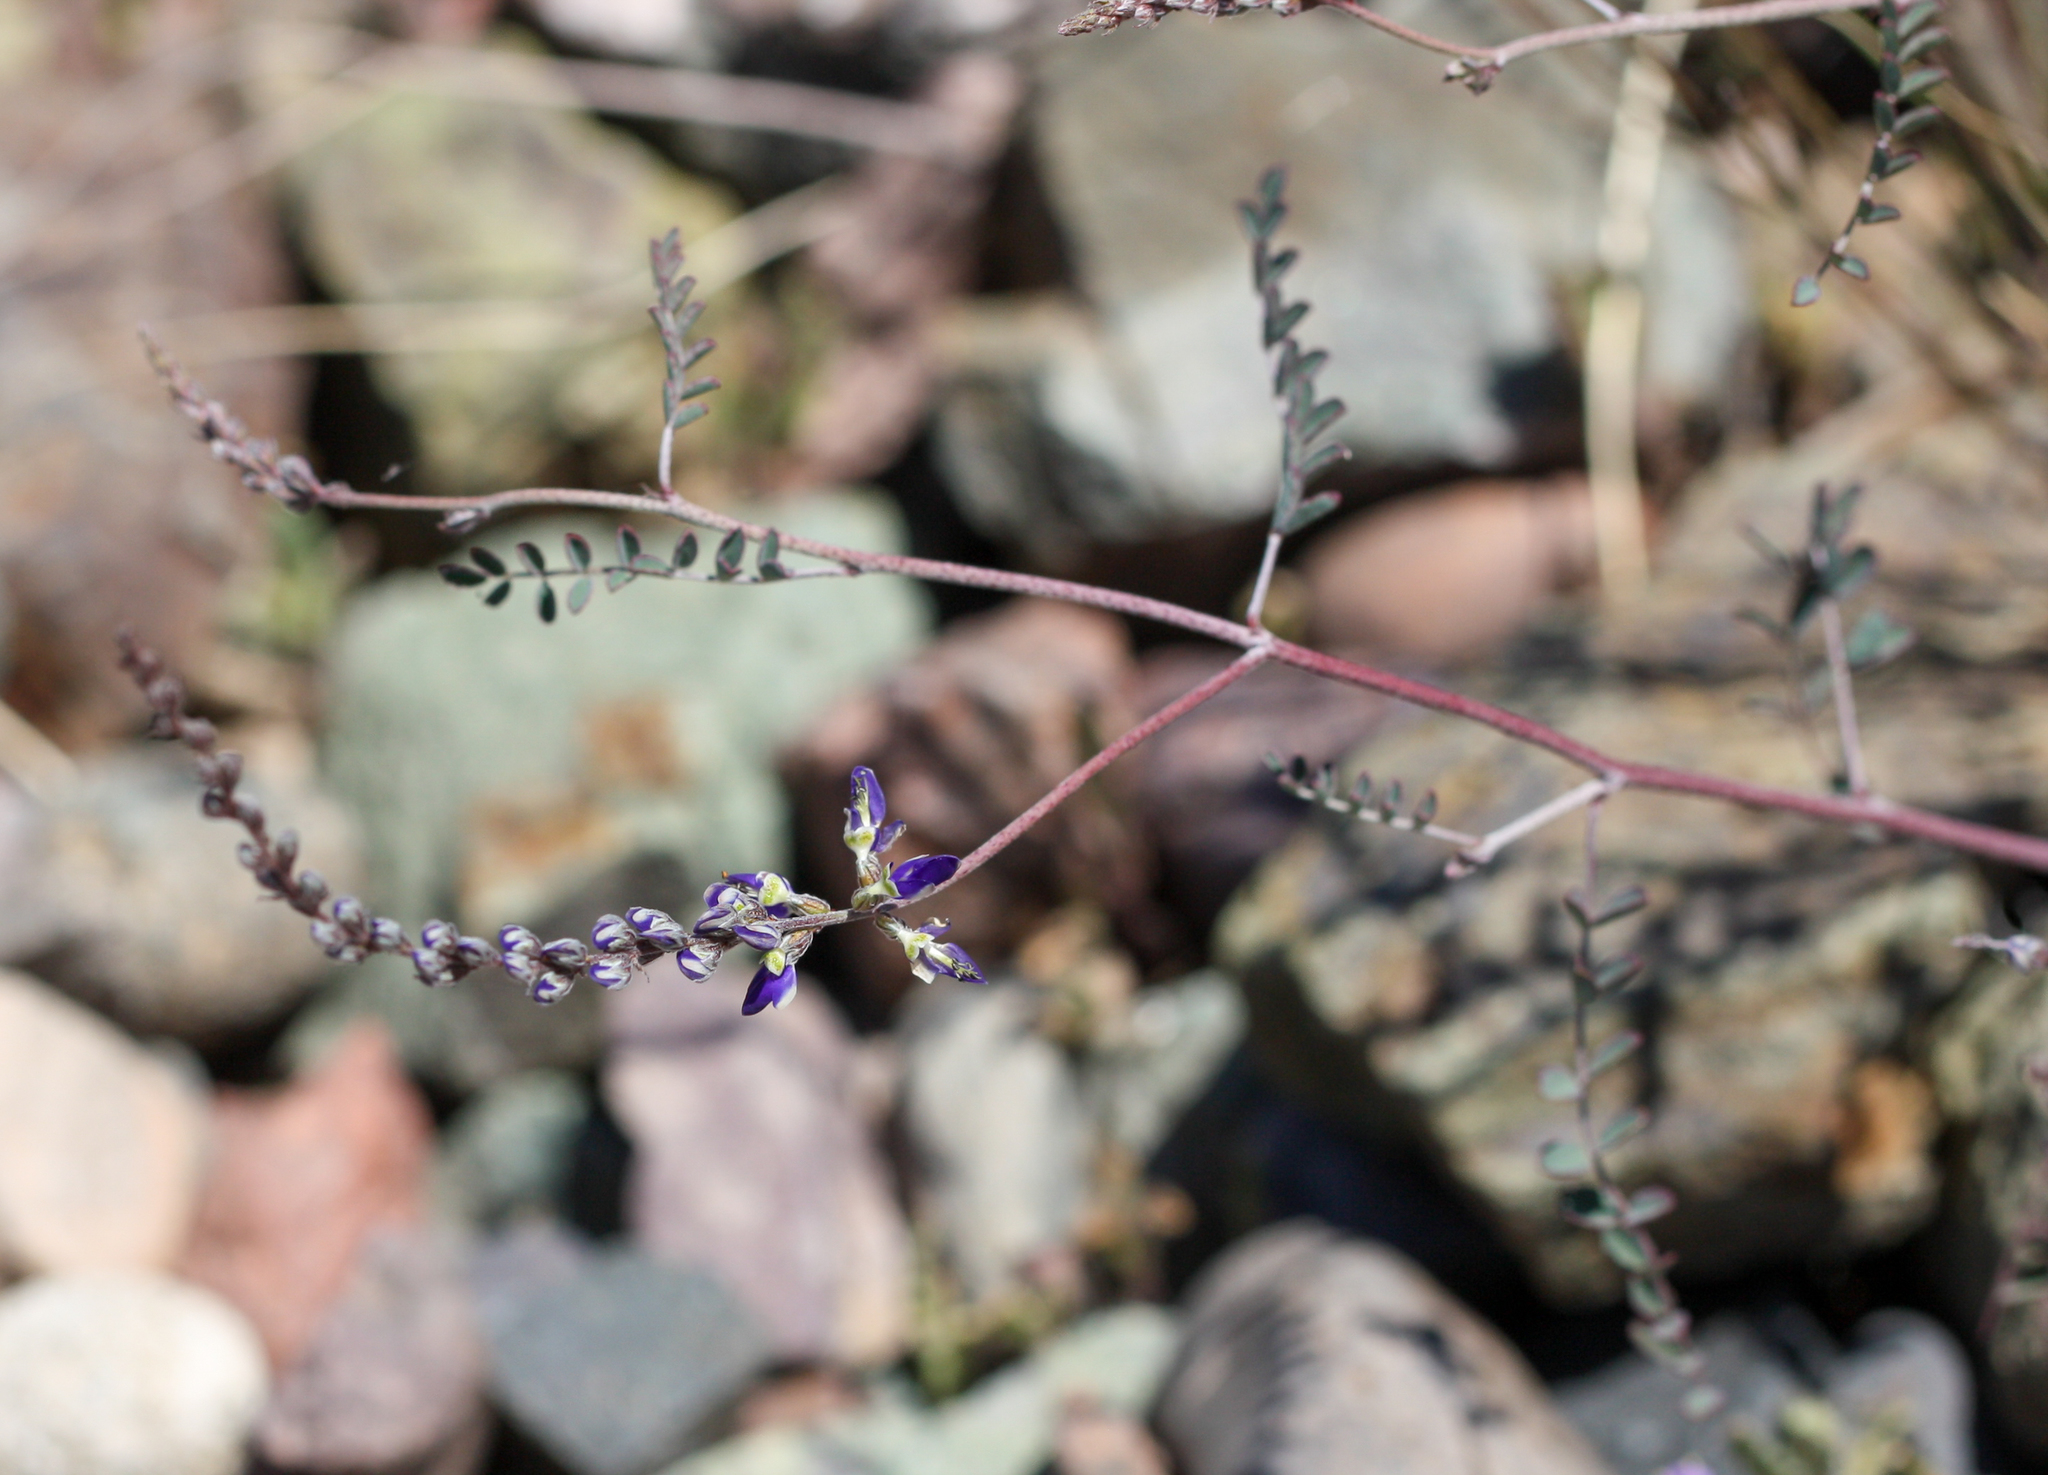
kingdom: Plantae
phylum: Tracheophyta
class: Magnoliopsida
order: Fabales
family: Fabaceae
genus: Marina
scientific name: Marina parryi
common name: Parry's marina
